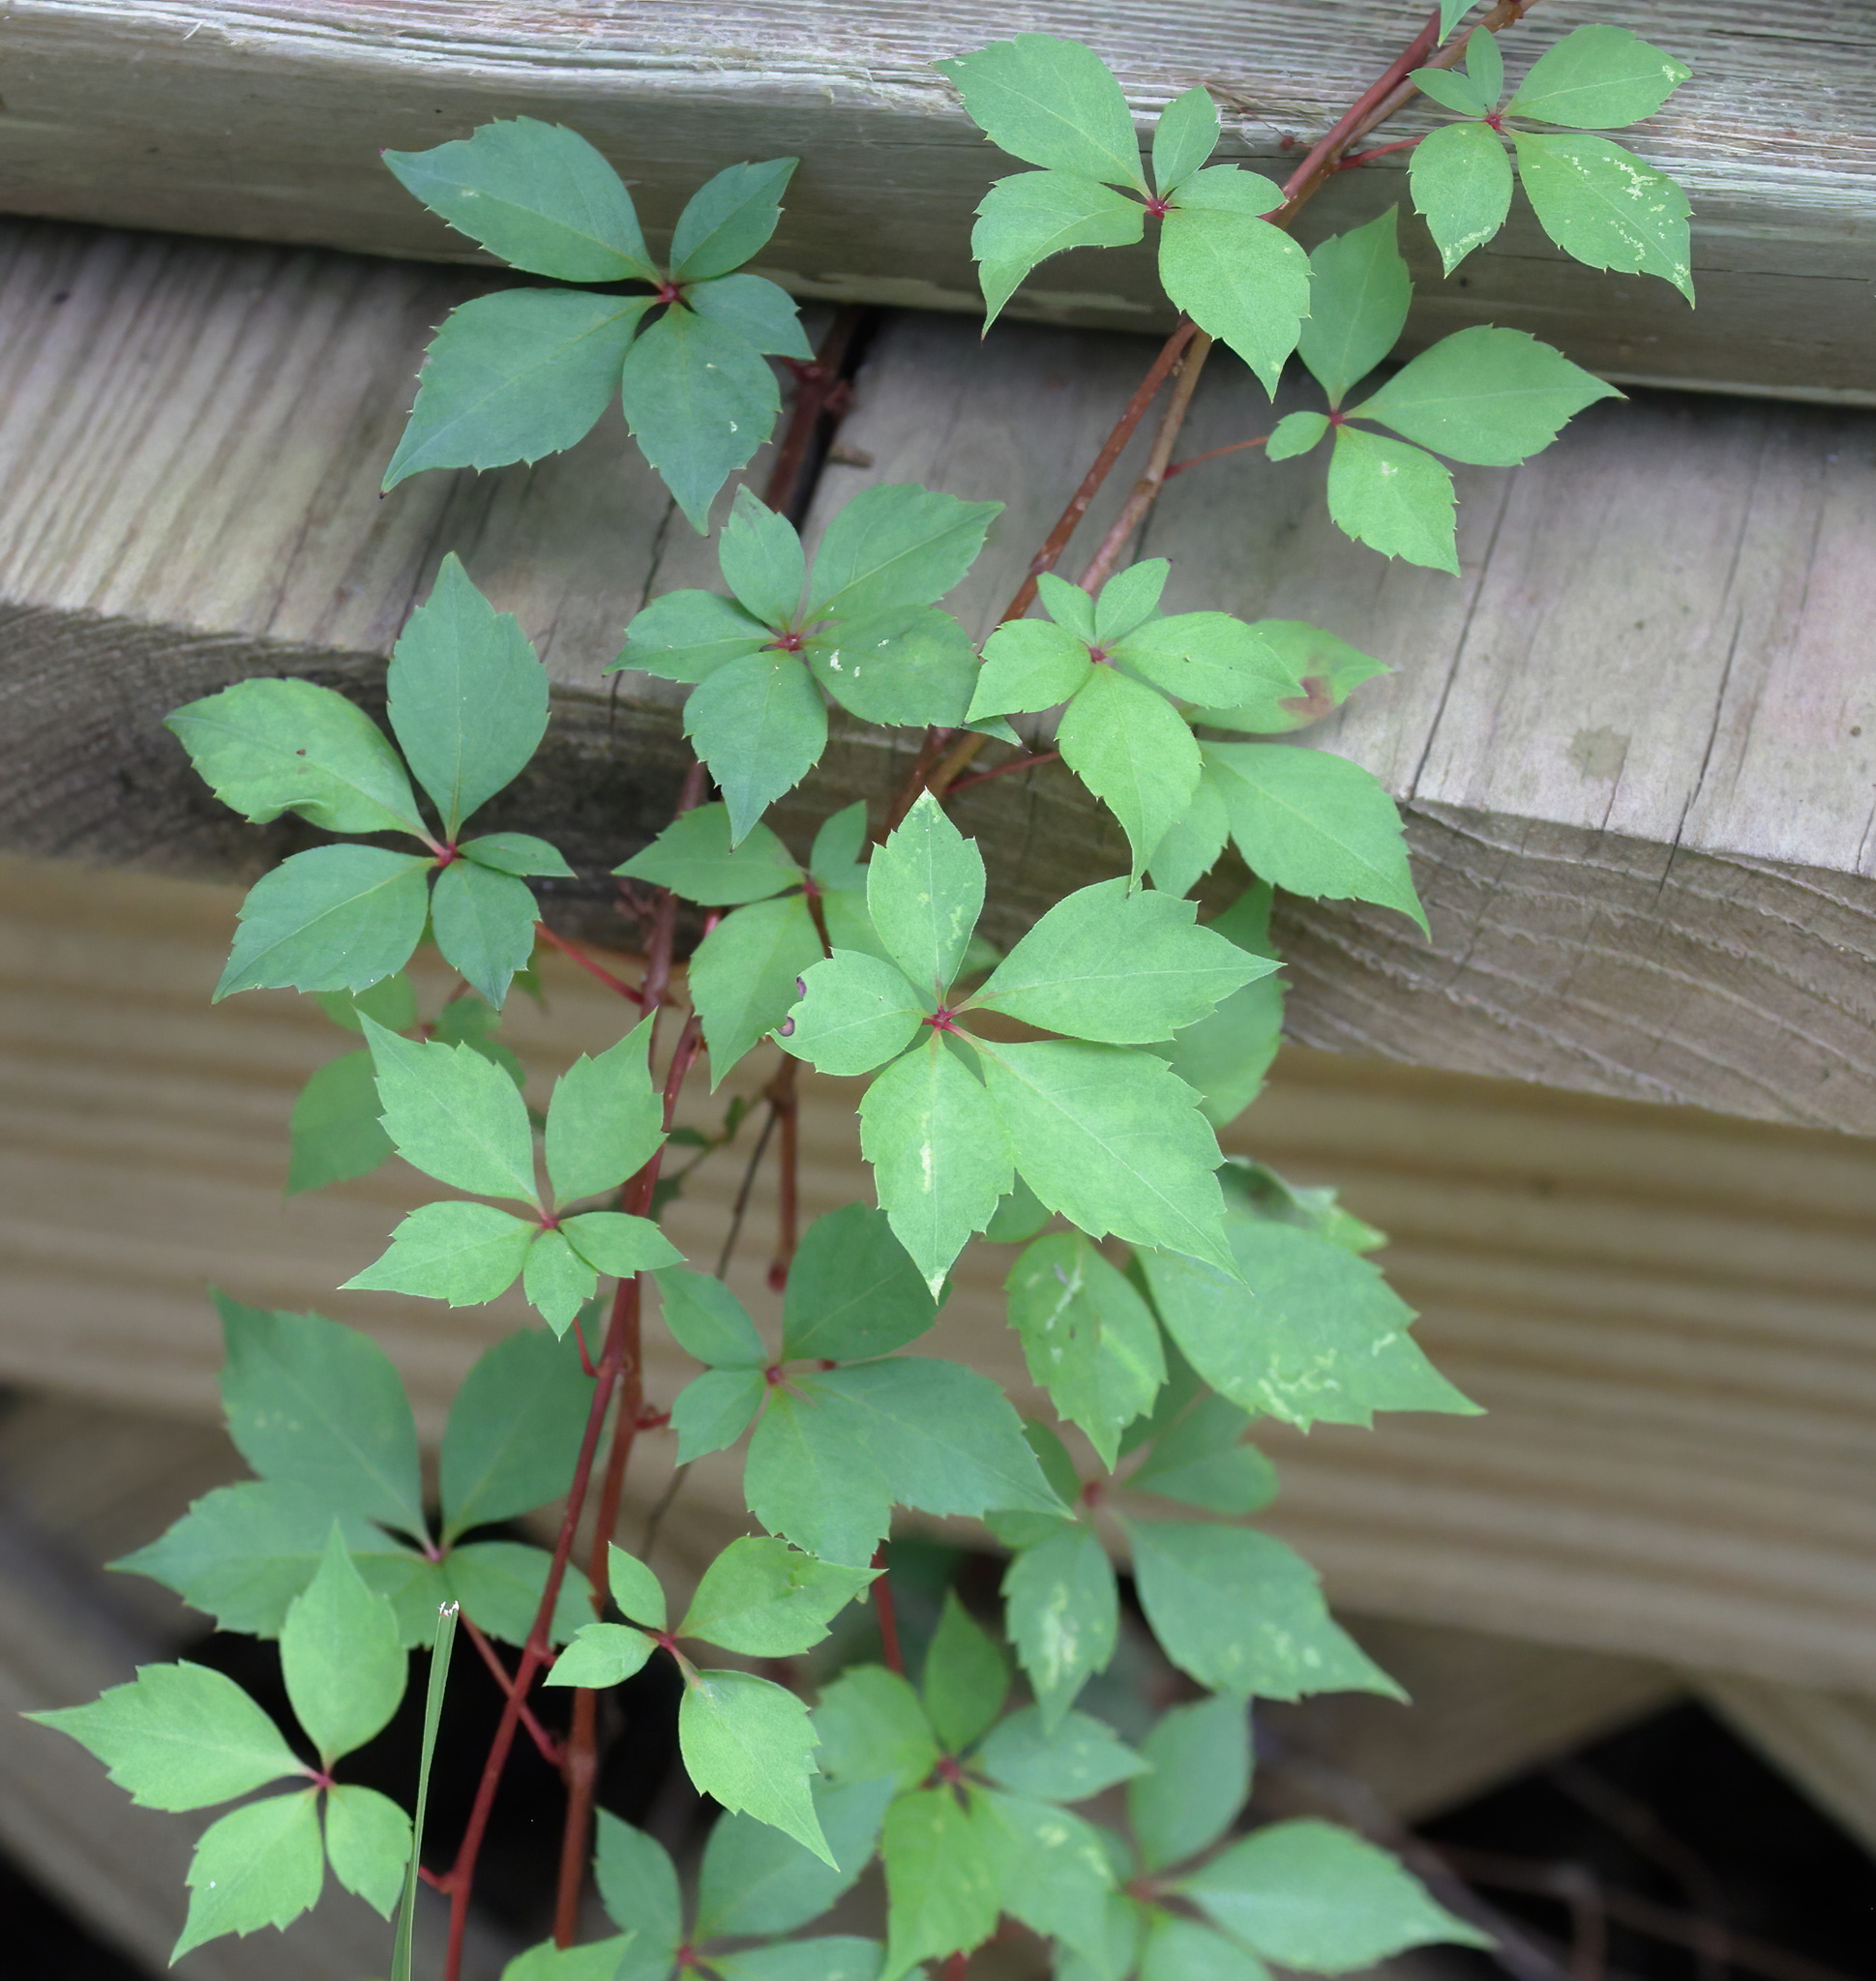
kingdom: Plantae
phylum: Tracheophyta
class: Magnoliopsida
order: Vitales
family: Vitaceae
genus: Parthenocissus
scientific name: Parthenocissus quinquefolia
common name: Virginia-creeper
